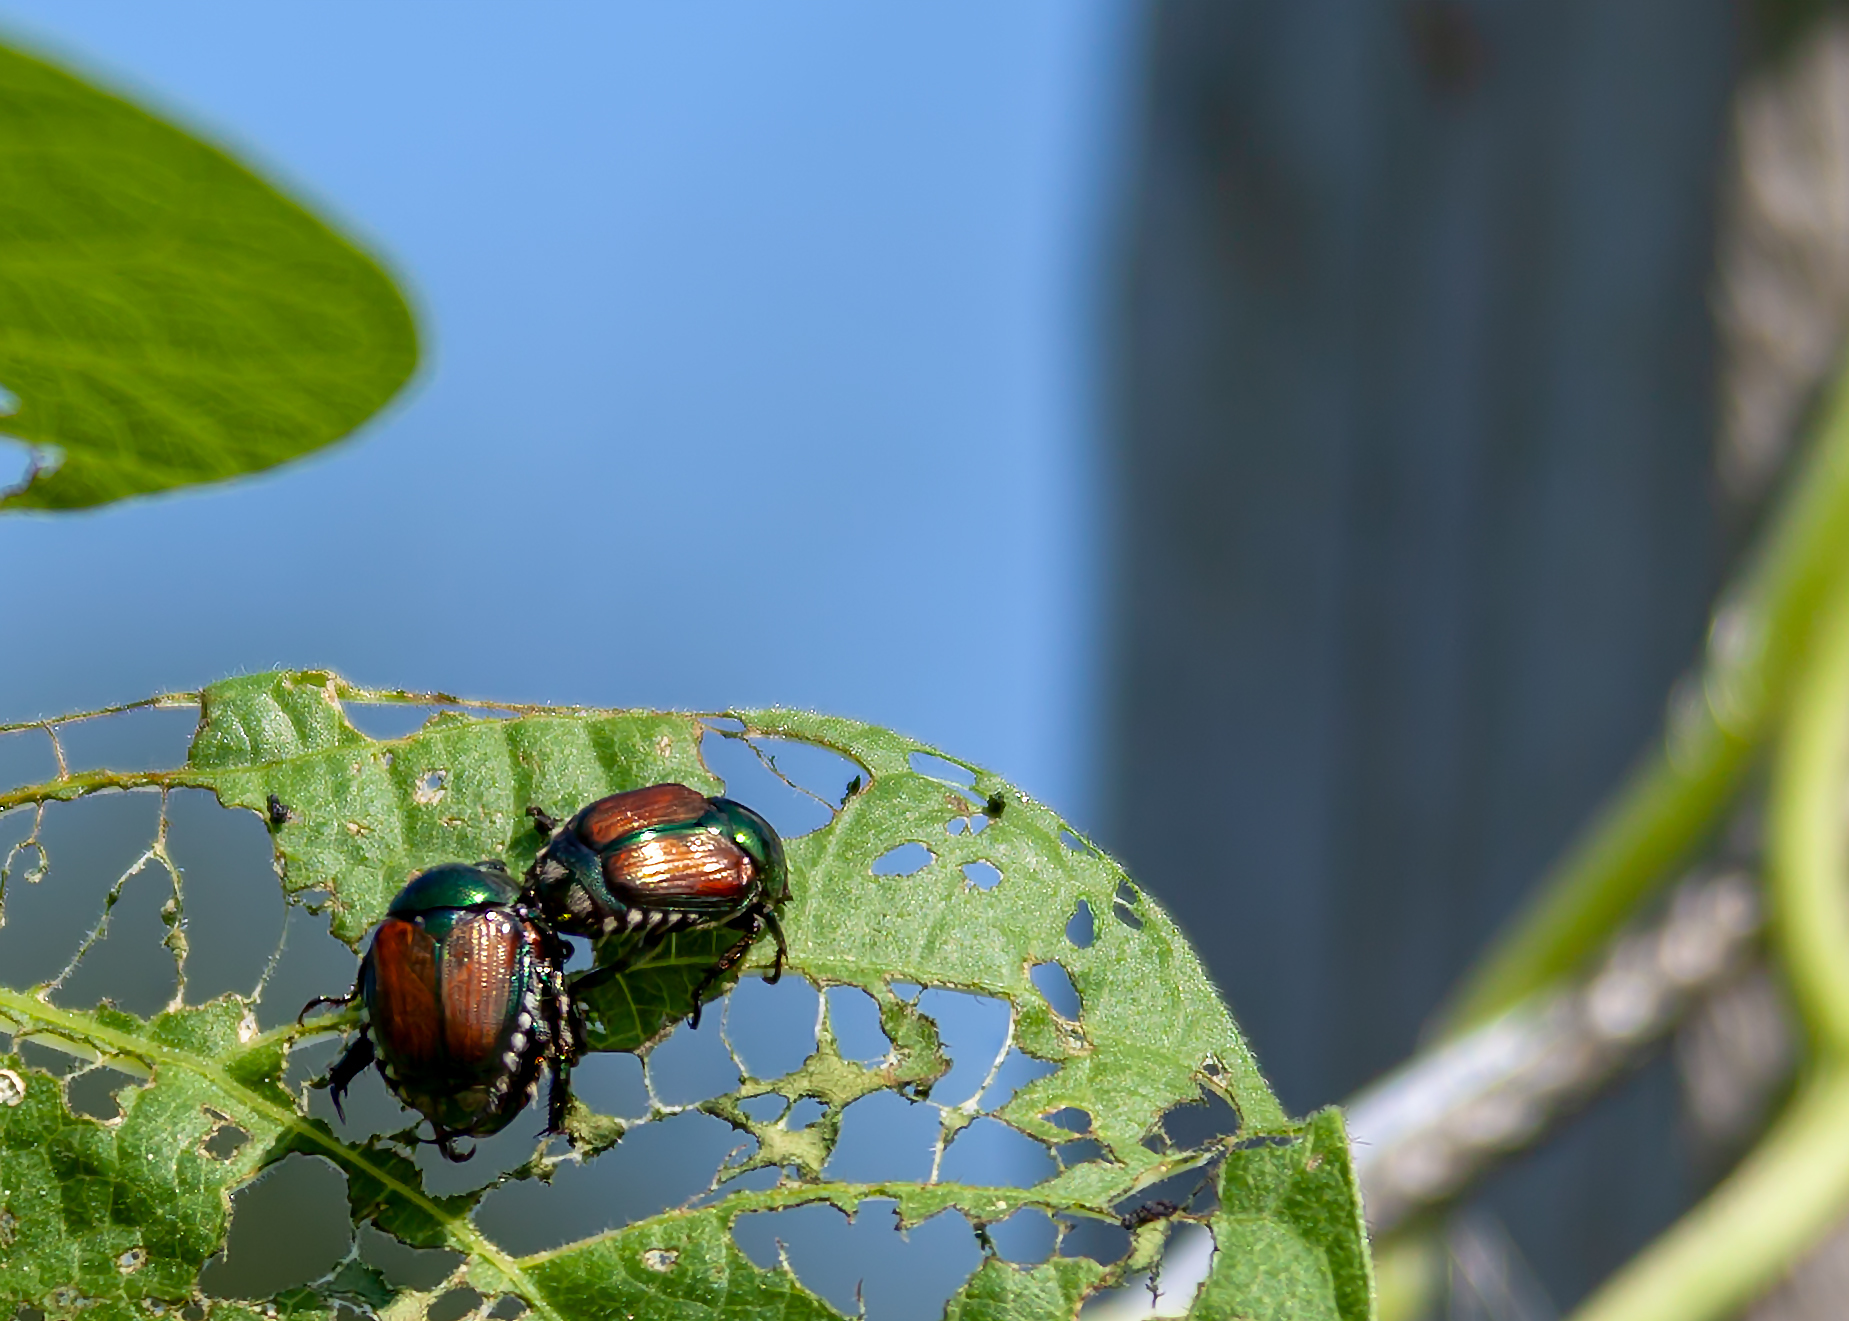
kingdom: Animalia
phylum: Arthropoda
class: Insecta
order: Coleoptera
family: Scarabaeidae
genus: Popillia
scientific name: Popillia japonica
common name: Japanese beetle
